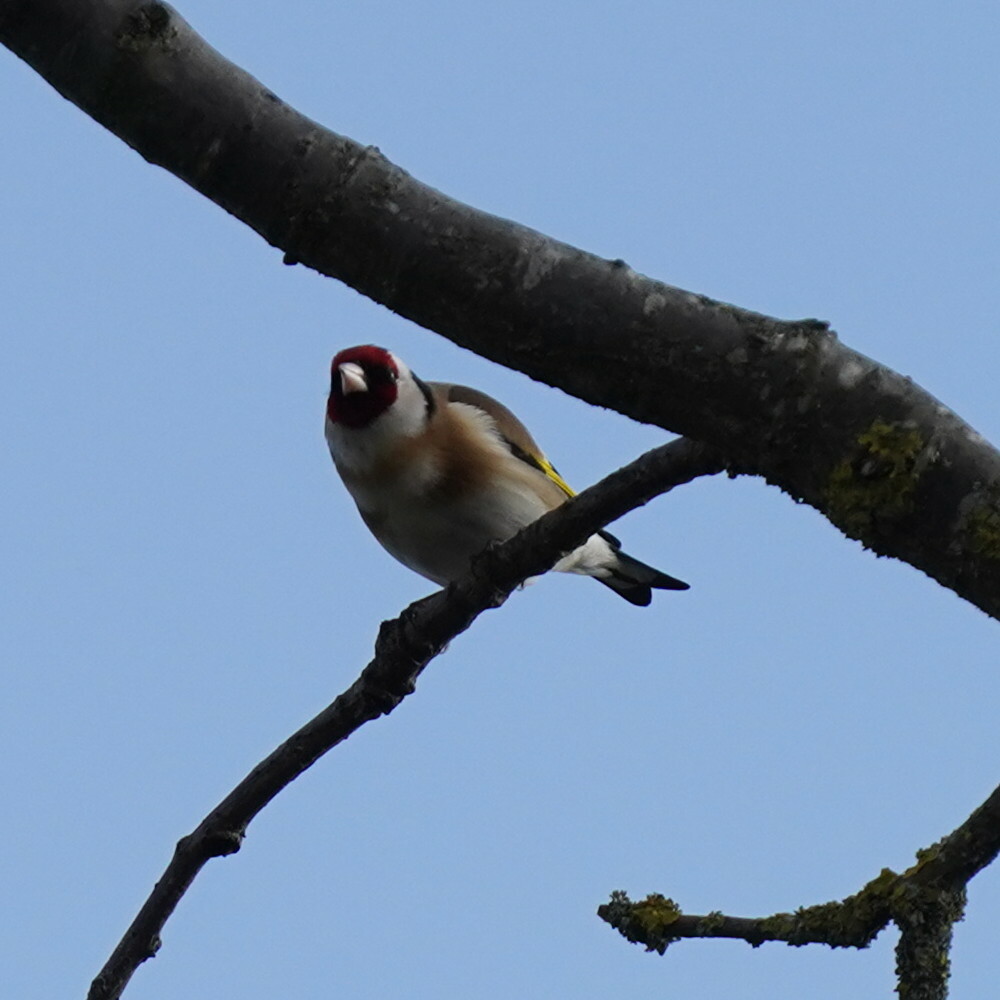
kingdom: Animalia
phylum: Chordata
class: Aves
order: Passeriformes
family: Fringillidae
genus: Carduelis
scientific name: Carduelis carduelis
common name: European goldfinch
